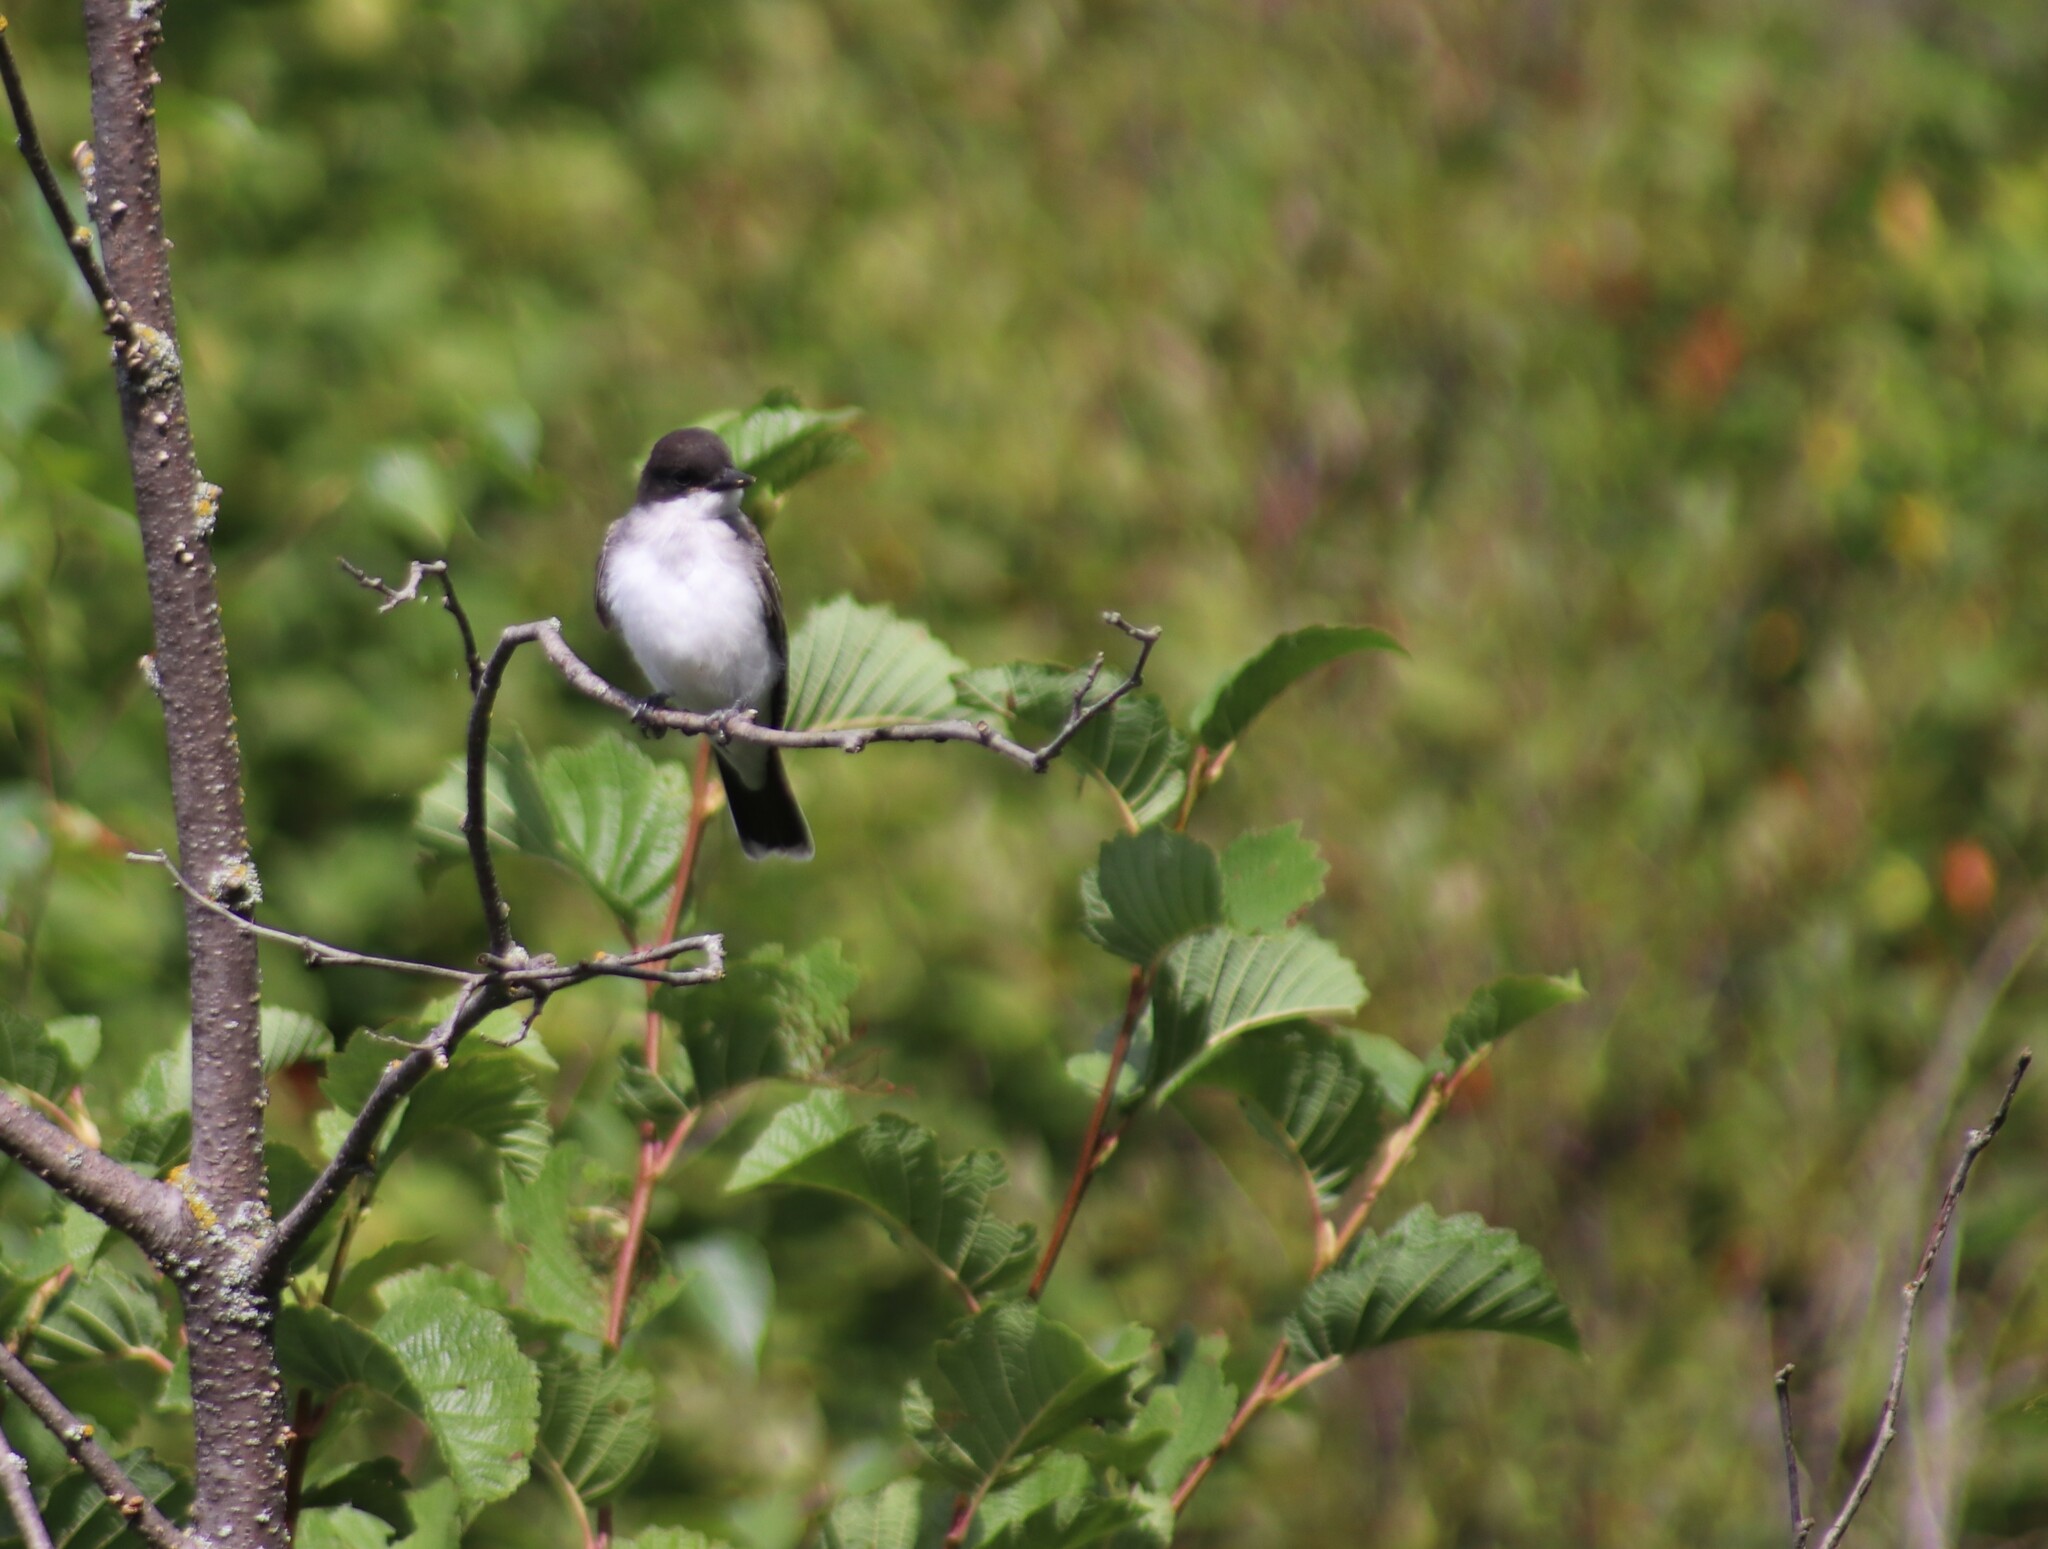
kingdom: Animalia
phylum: Chordata
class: Aves
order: Passeriformes
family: Tyrannidae
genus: Tyrannus
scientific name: Tyrannus tyrannus
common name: Eastern kingbird
